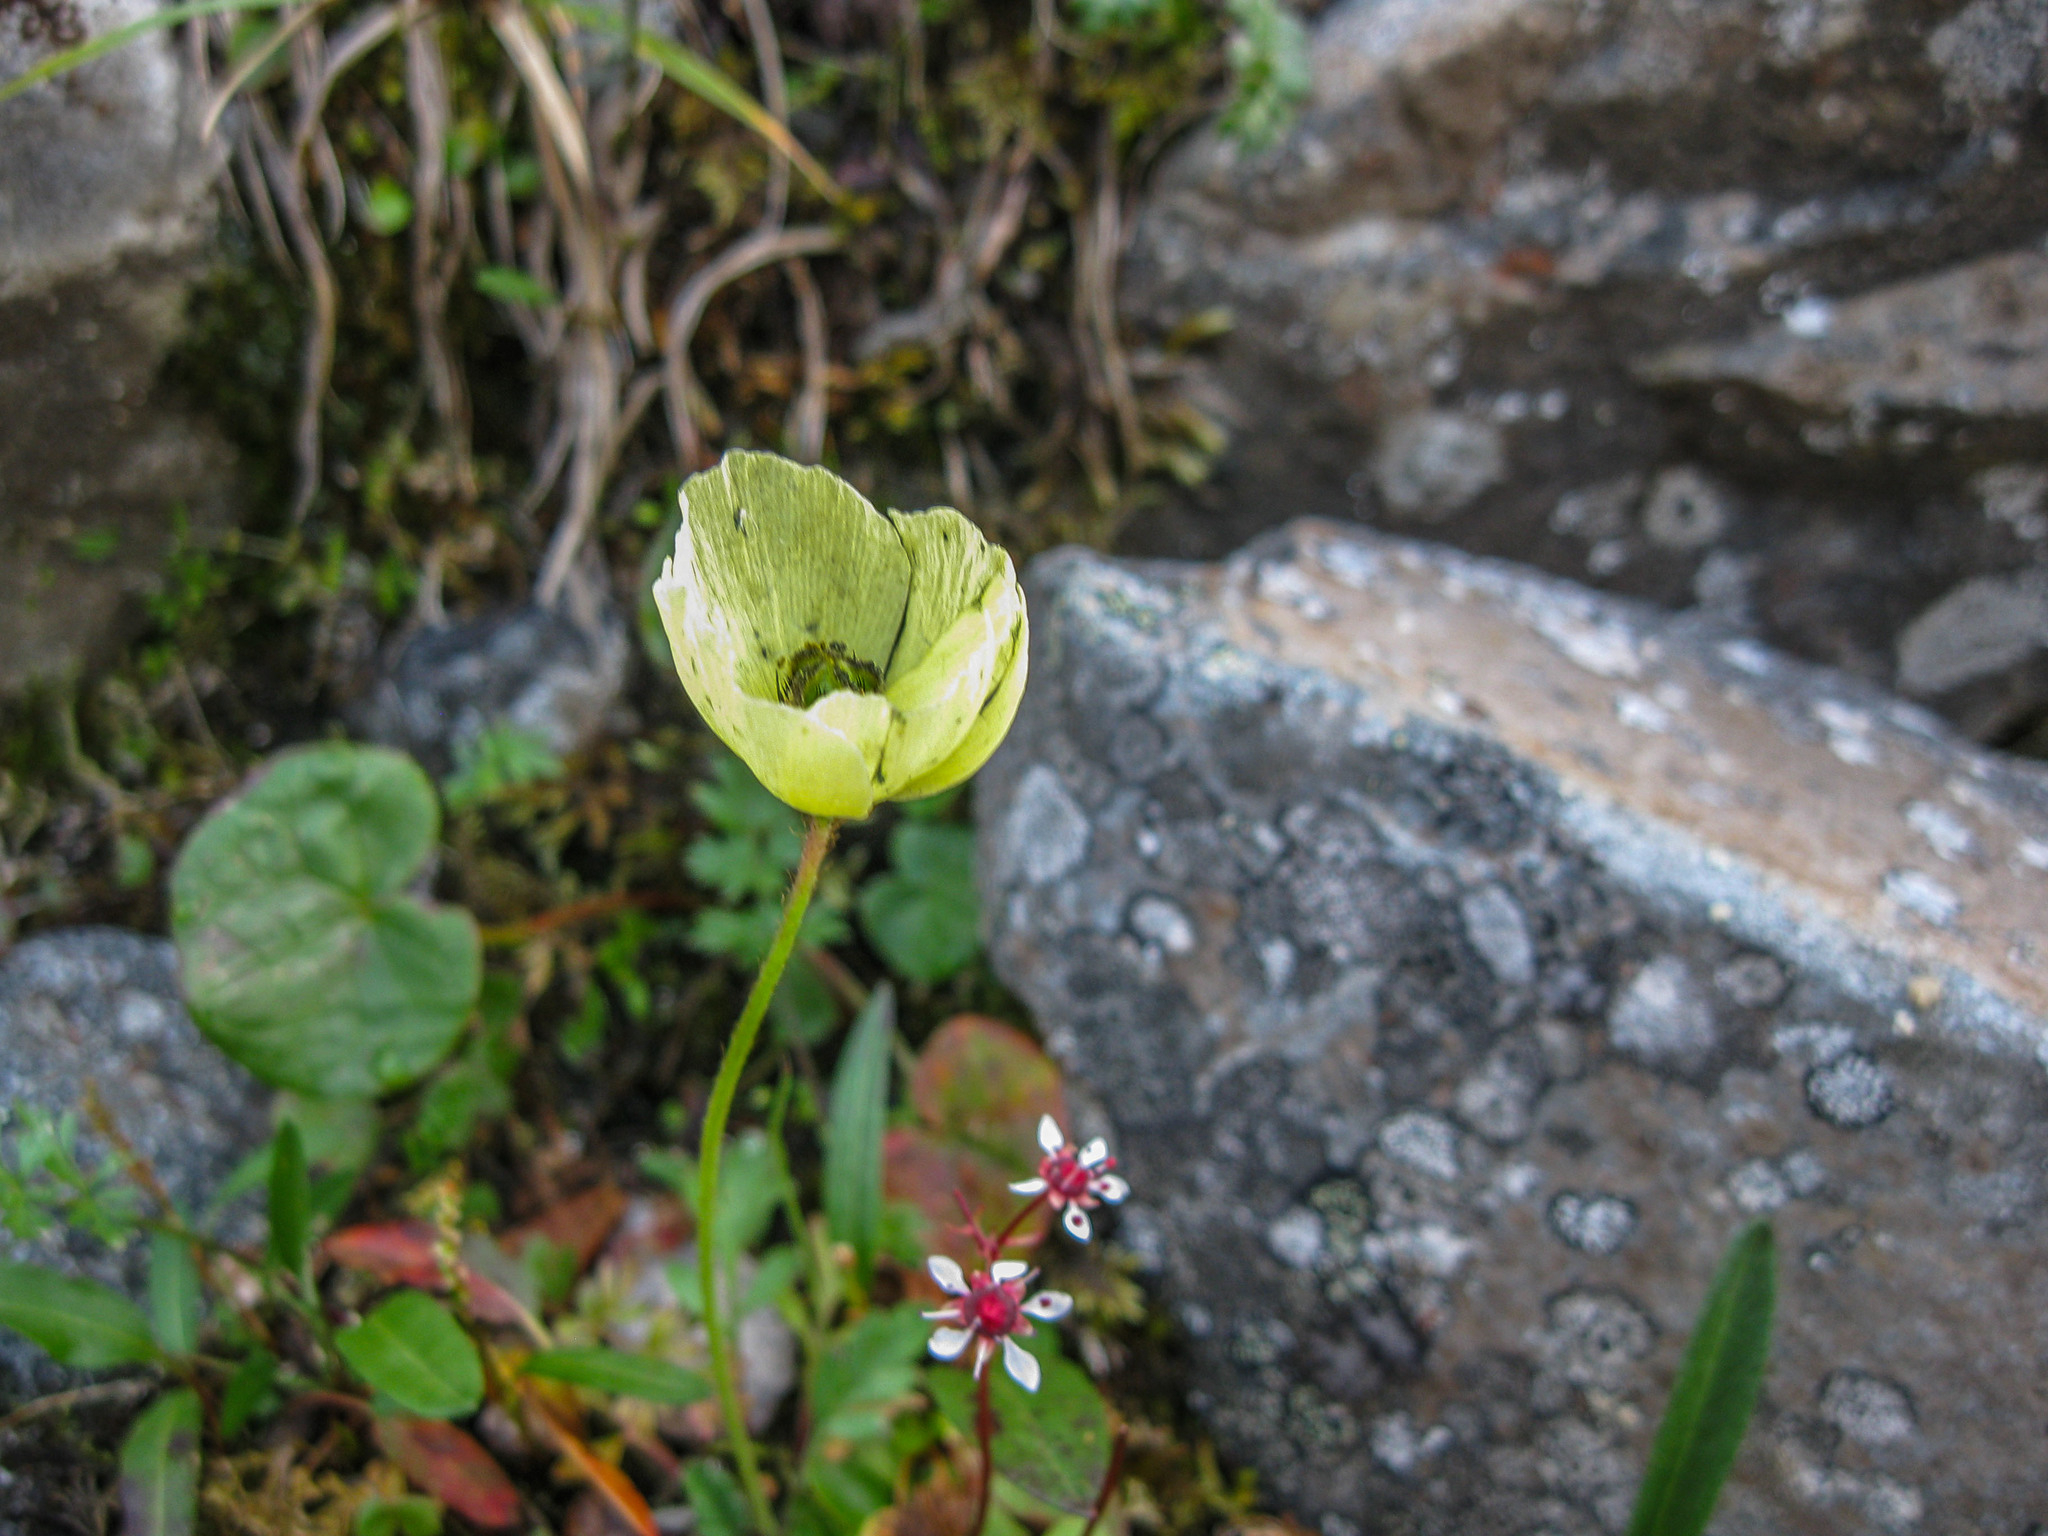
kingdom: Plantae
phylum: Tracheophyta
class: Magnoliopsida
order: Ranunculales
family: Papaveraceae
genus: Papaver
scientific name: Papaver canescens
